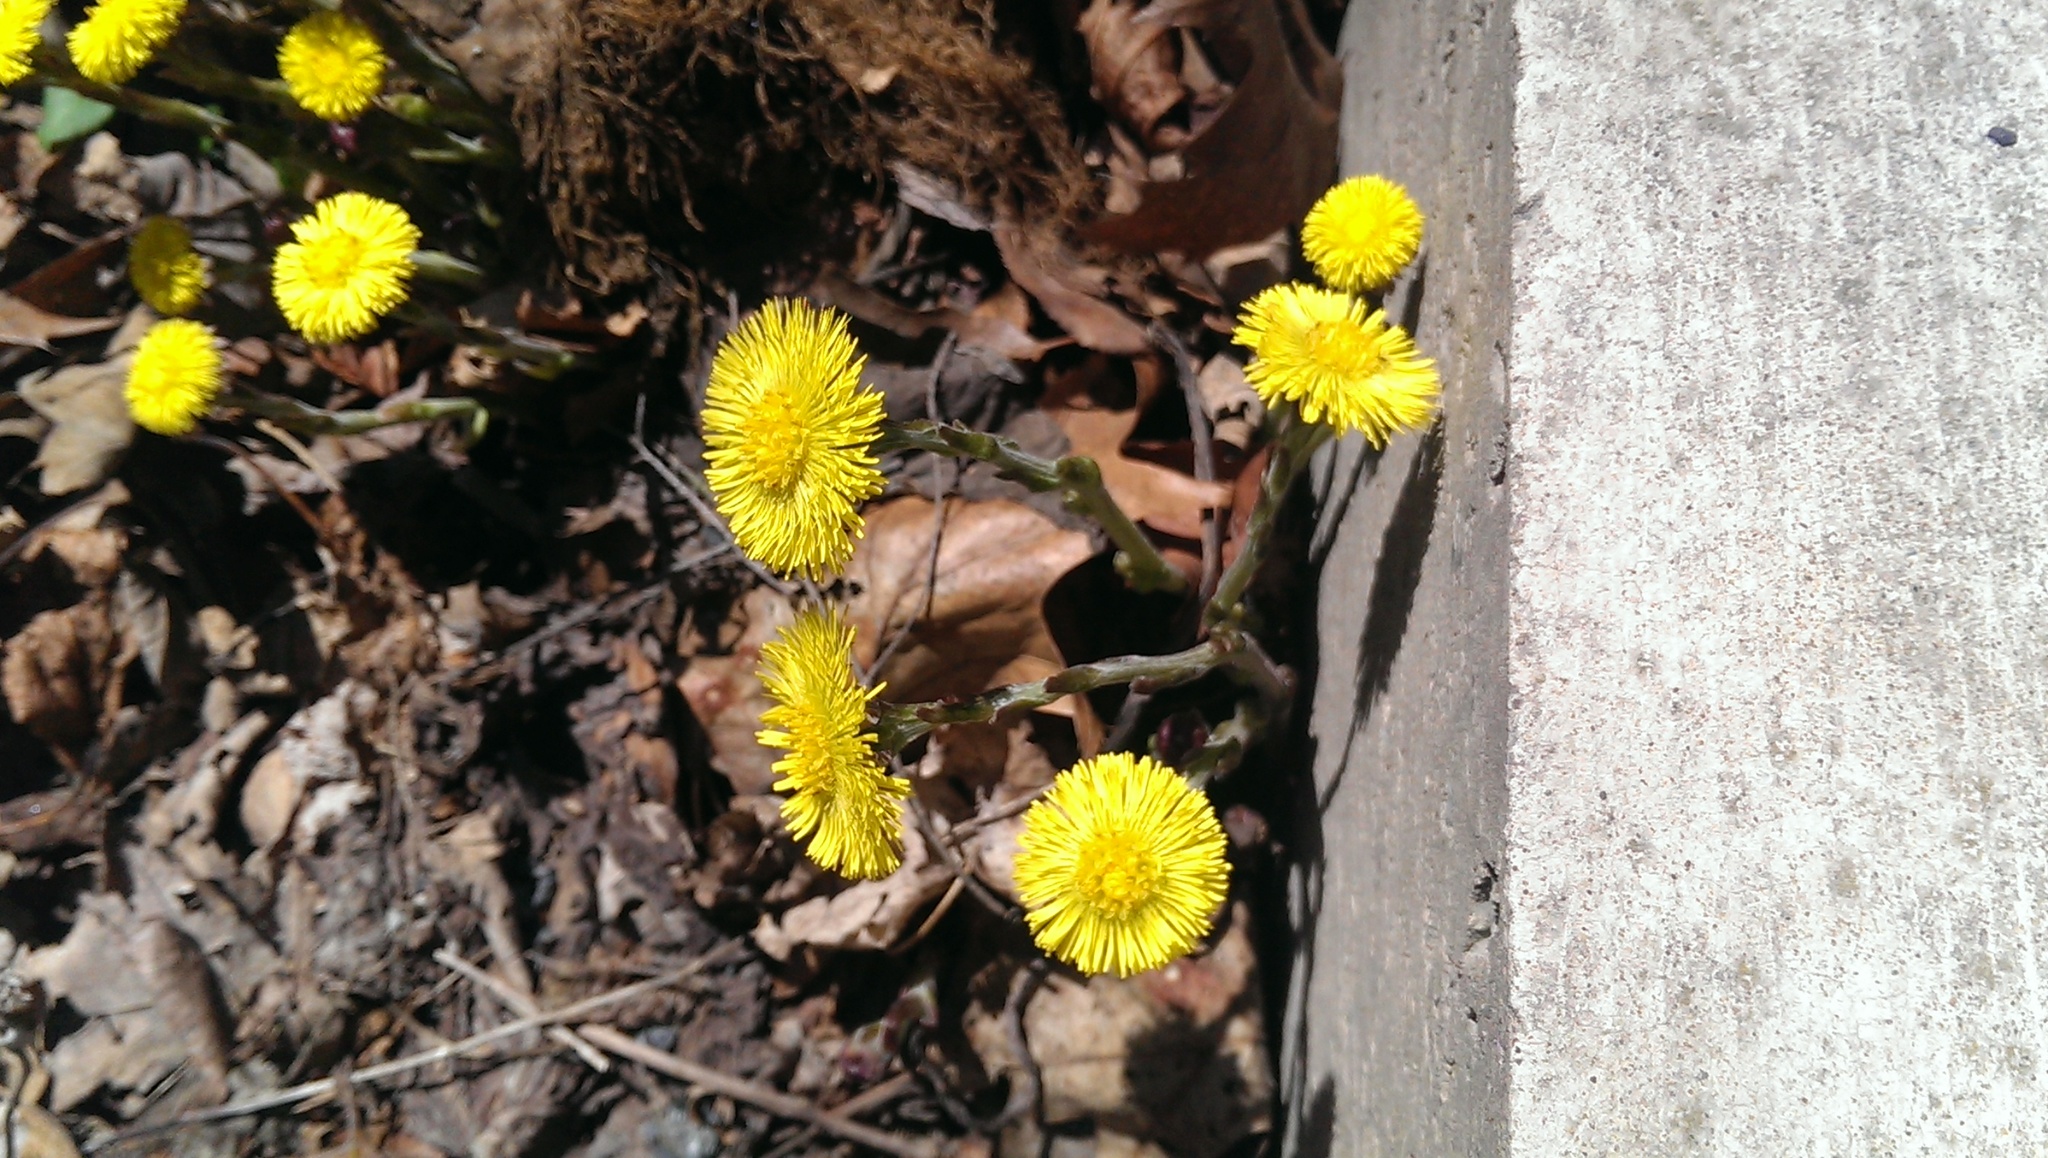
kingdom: Plantae
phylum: Tracheophyta
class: Magnoliopsida
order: Asterales
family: Asteraceae
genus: Tussilago
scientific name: Tussilago farfara
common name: Coltsfoot
